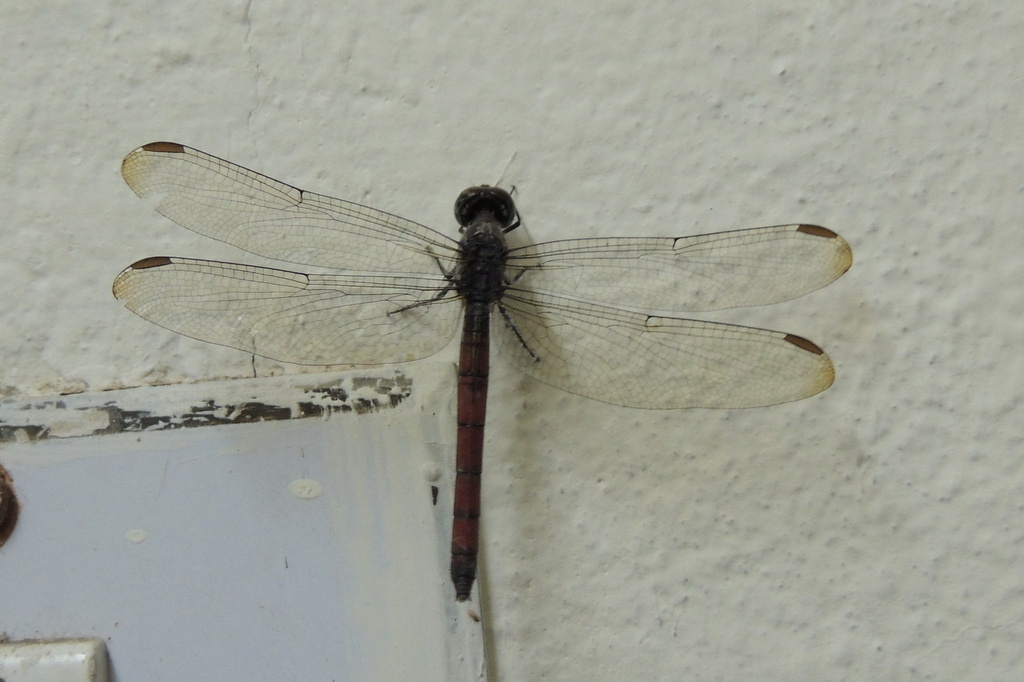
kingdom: Animalia
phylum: Arthropoda
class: Insecta
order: Odonata
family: Libellulidae
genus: Lathrecista
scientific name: Lathrecista asiatica
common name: Scarlet grenadier
